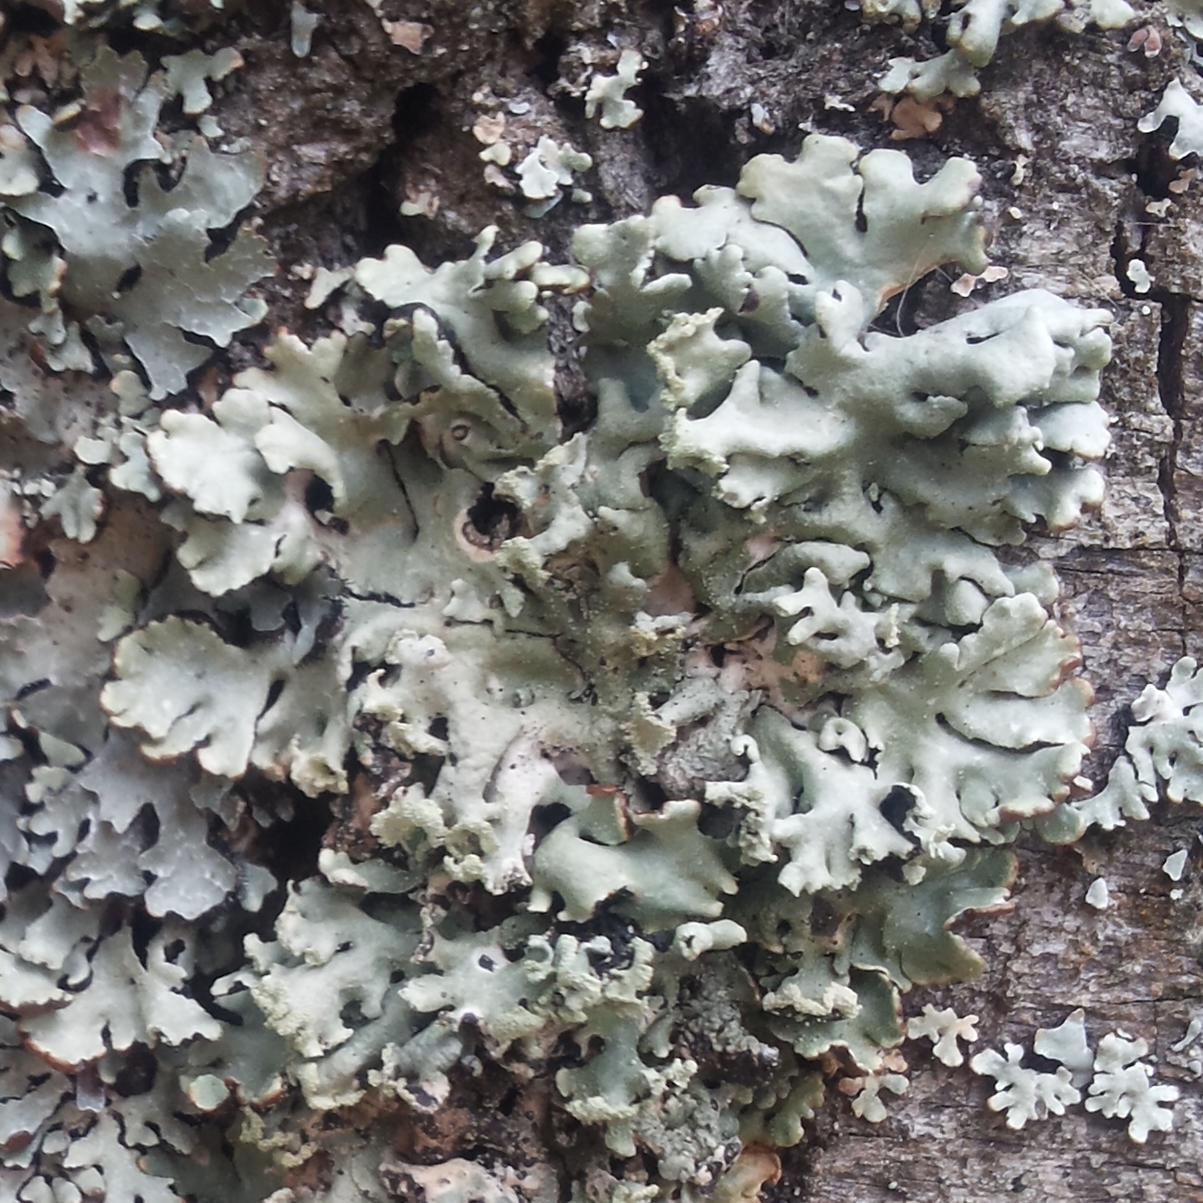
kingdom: Fungi
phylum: Ascomycota
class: Lecanoromycetes
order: Lecanorales
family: Parmeliaceae
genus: Hypogymnia
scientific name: Hypogymnia physodes
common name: Dark crottle
